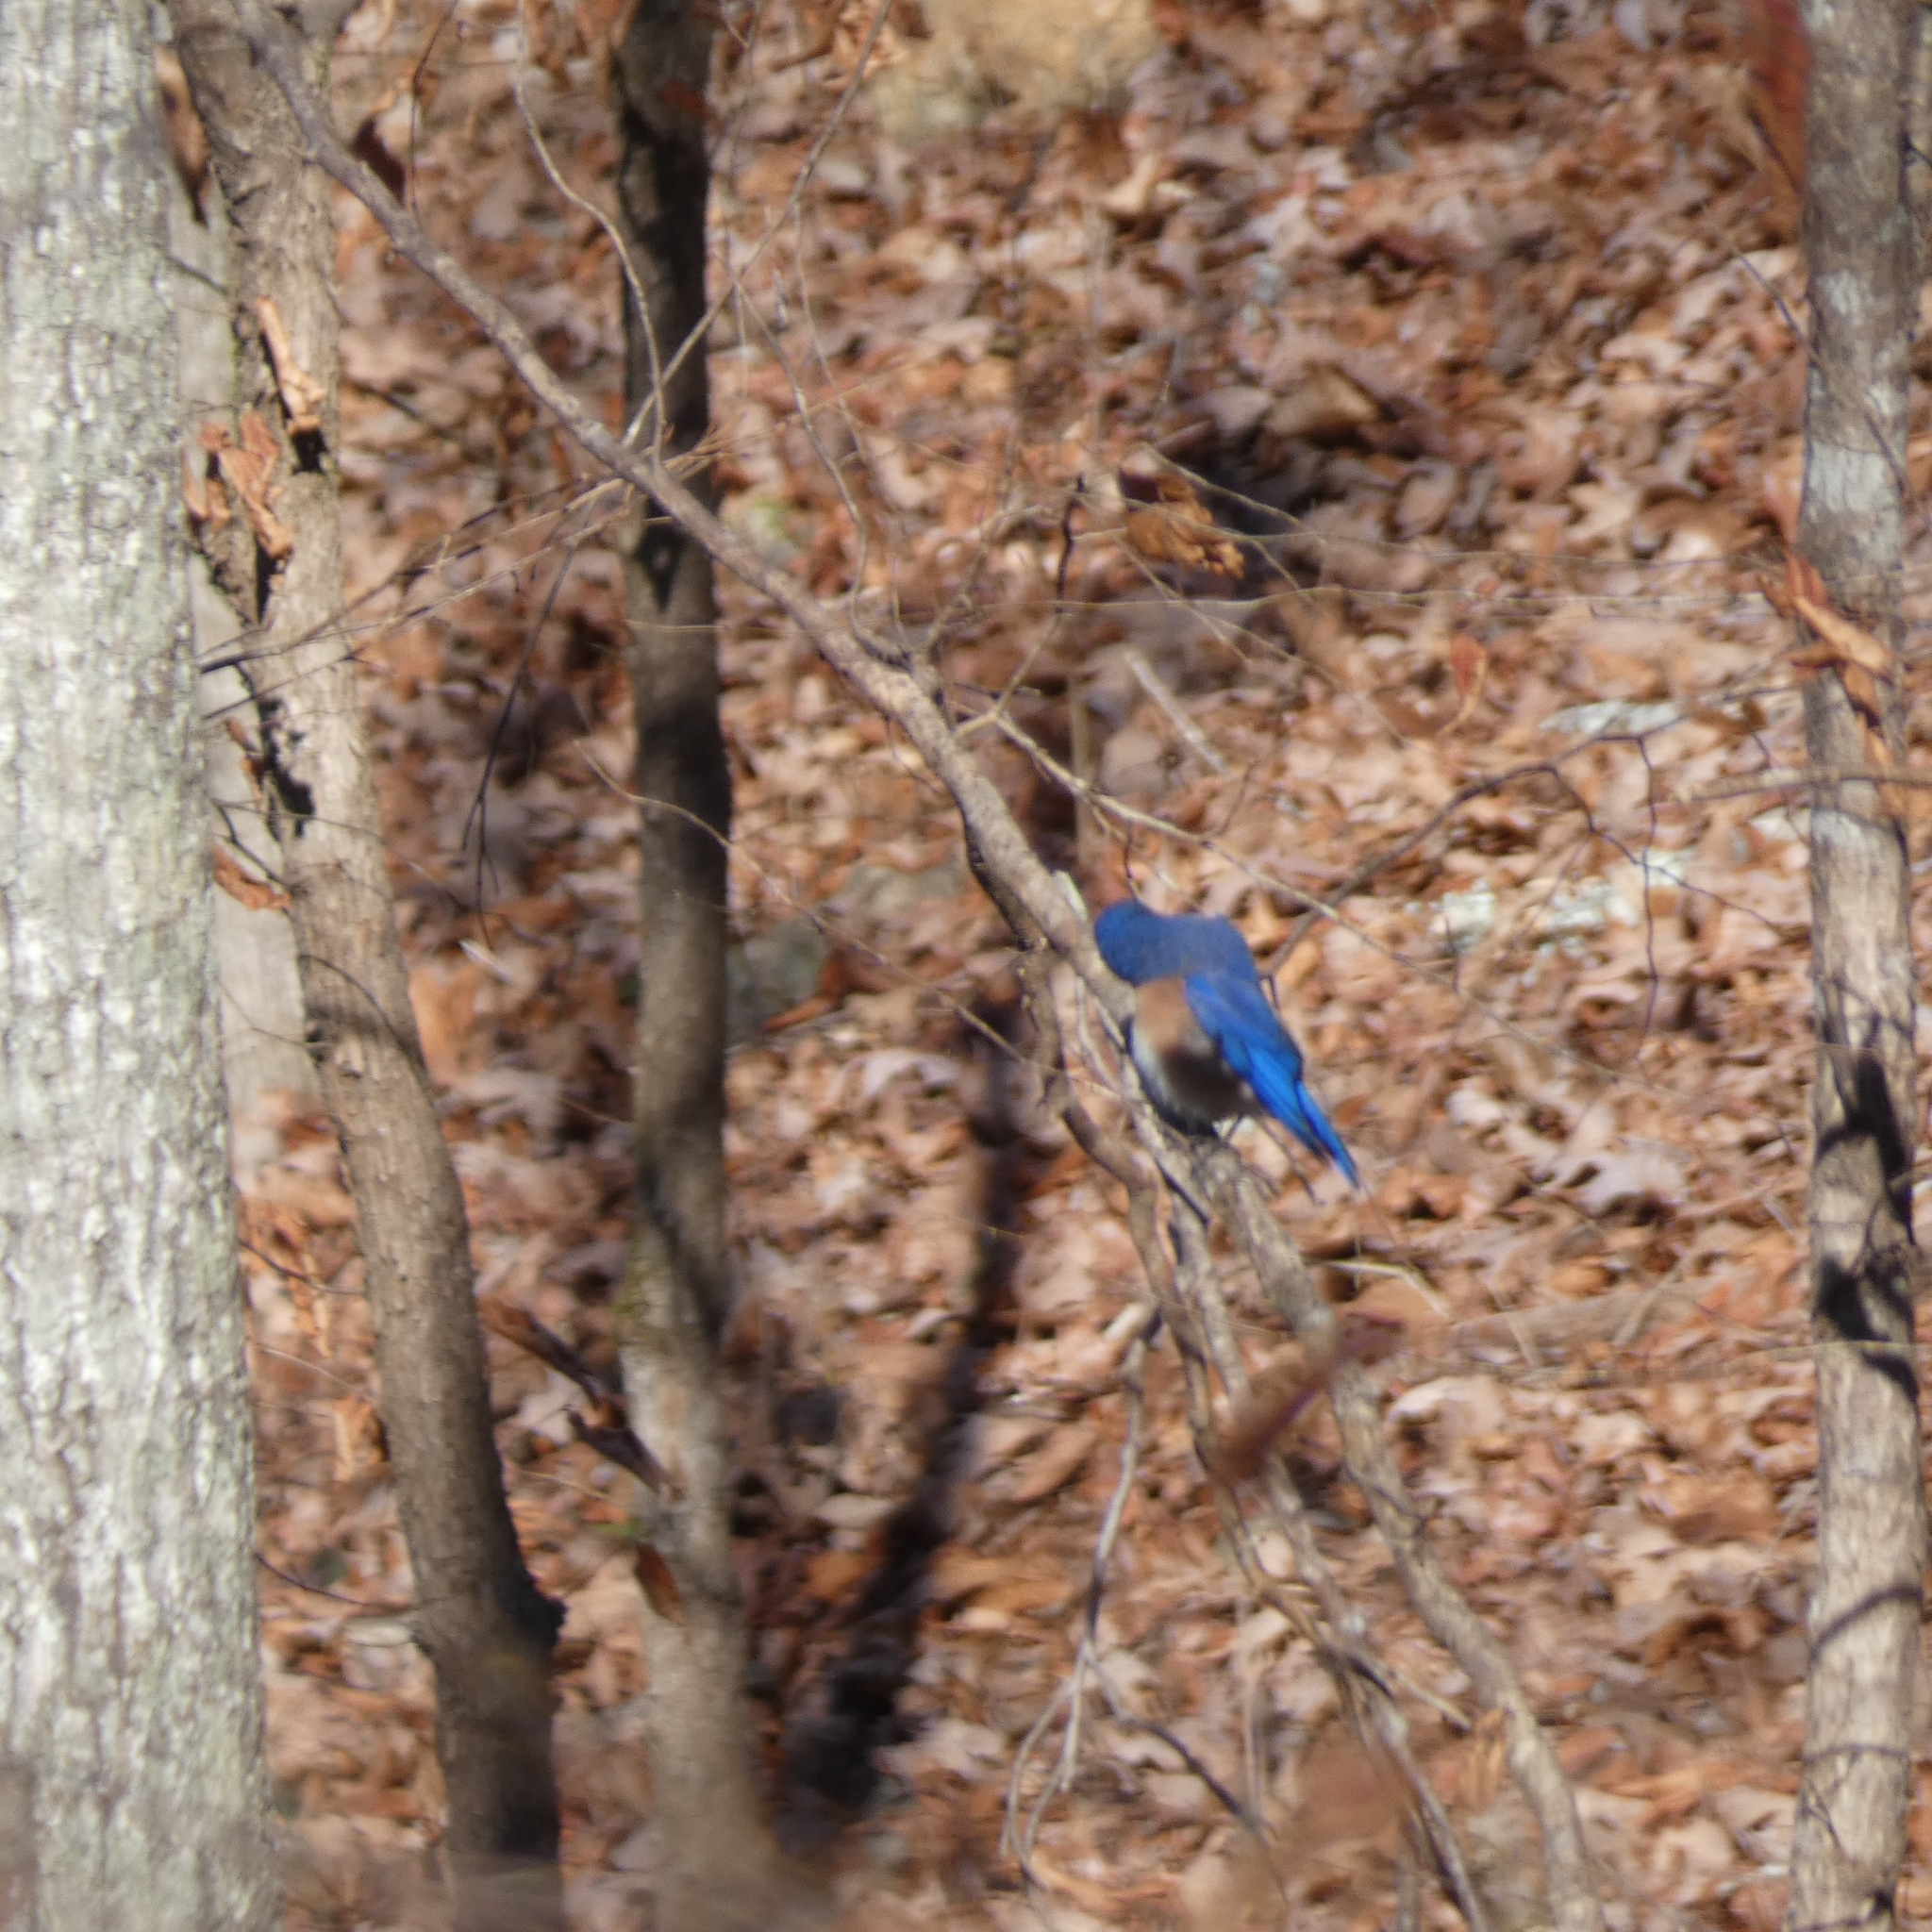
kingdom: Animalia
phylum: Chordata
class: Aves
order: Passeriformes
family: Turdidae
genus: Sialia
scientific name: Sialia sialis
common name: Eastern bluebird
